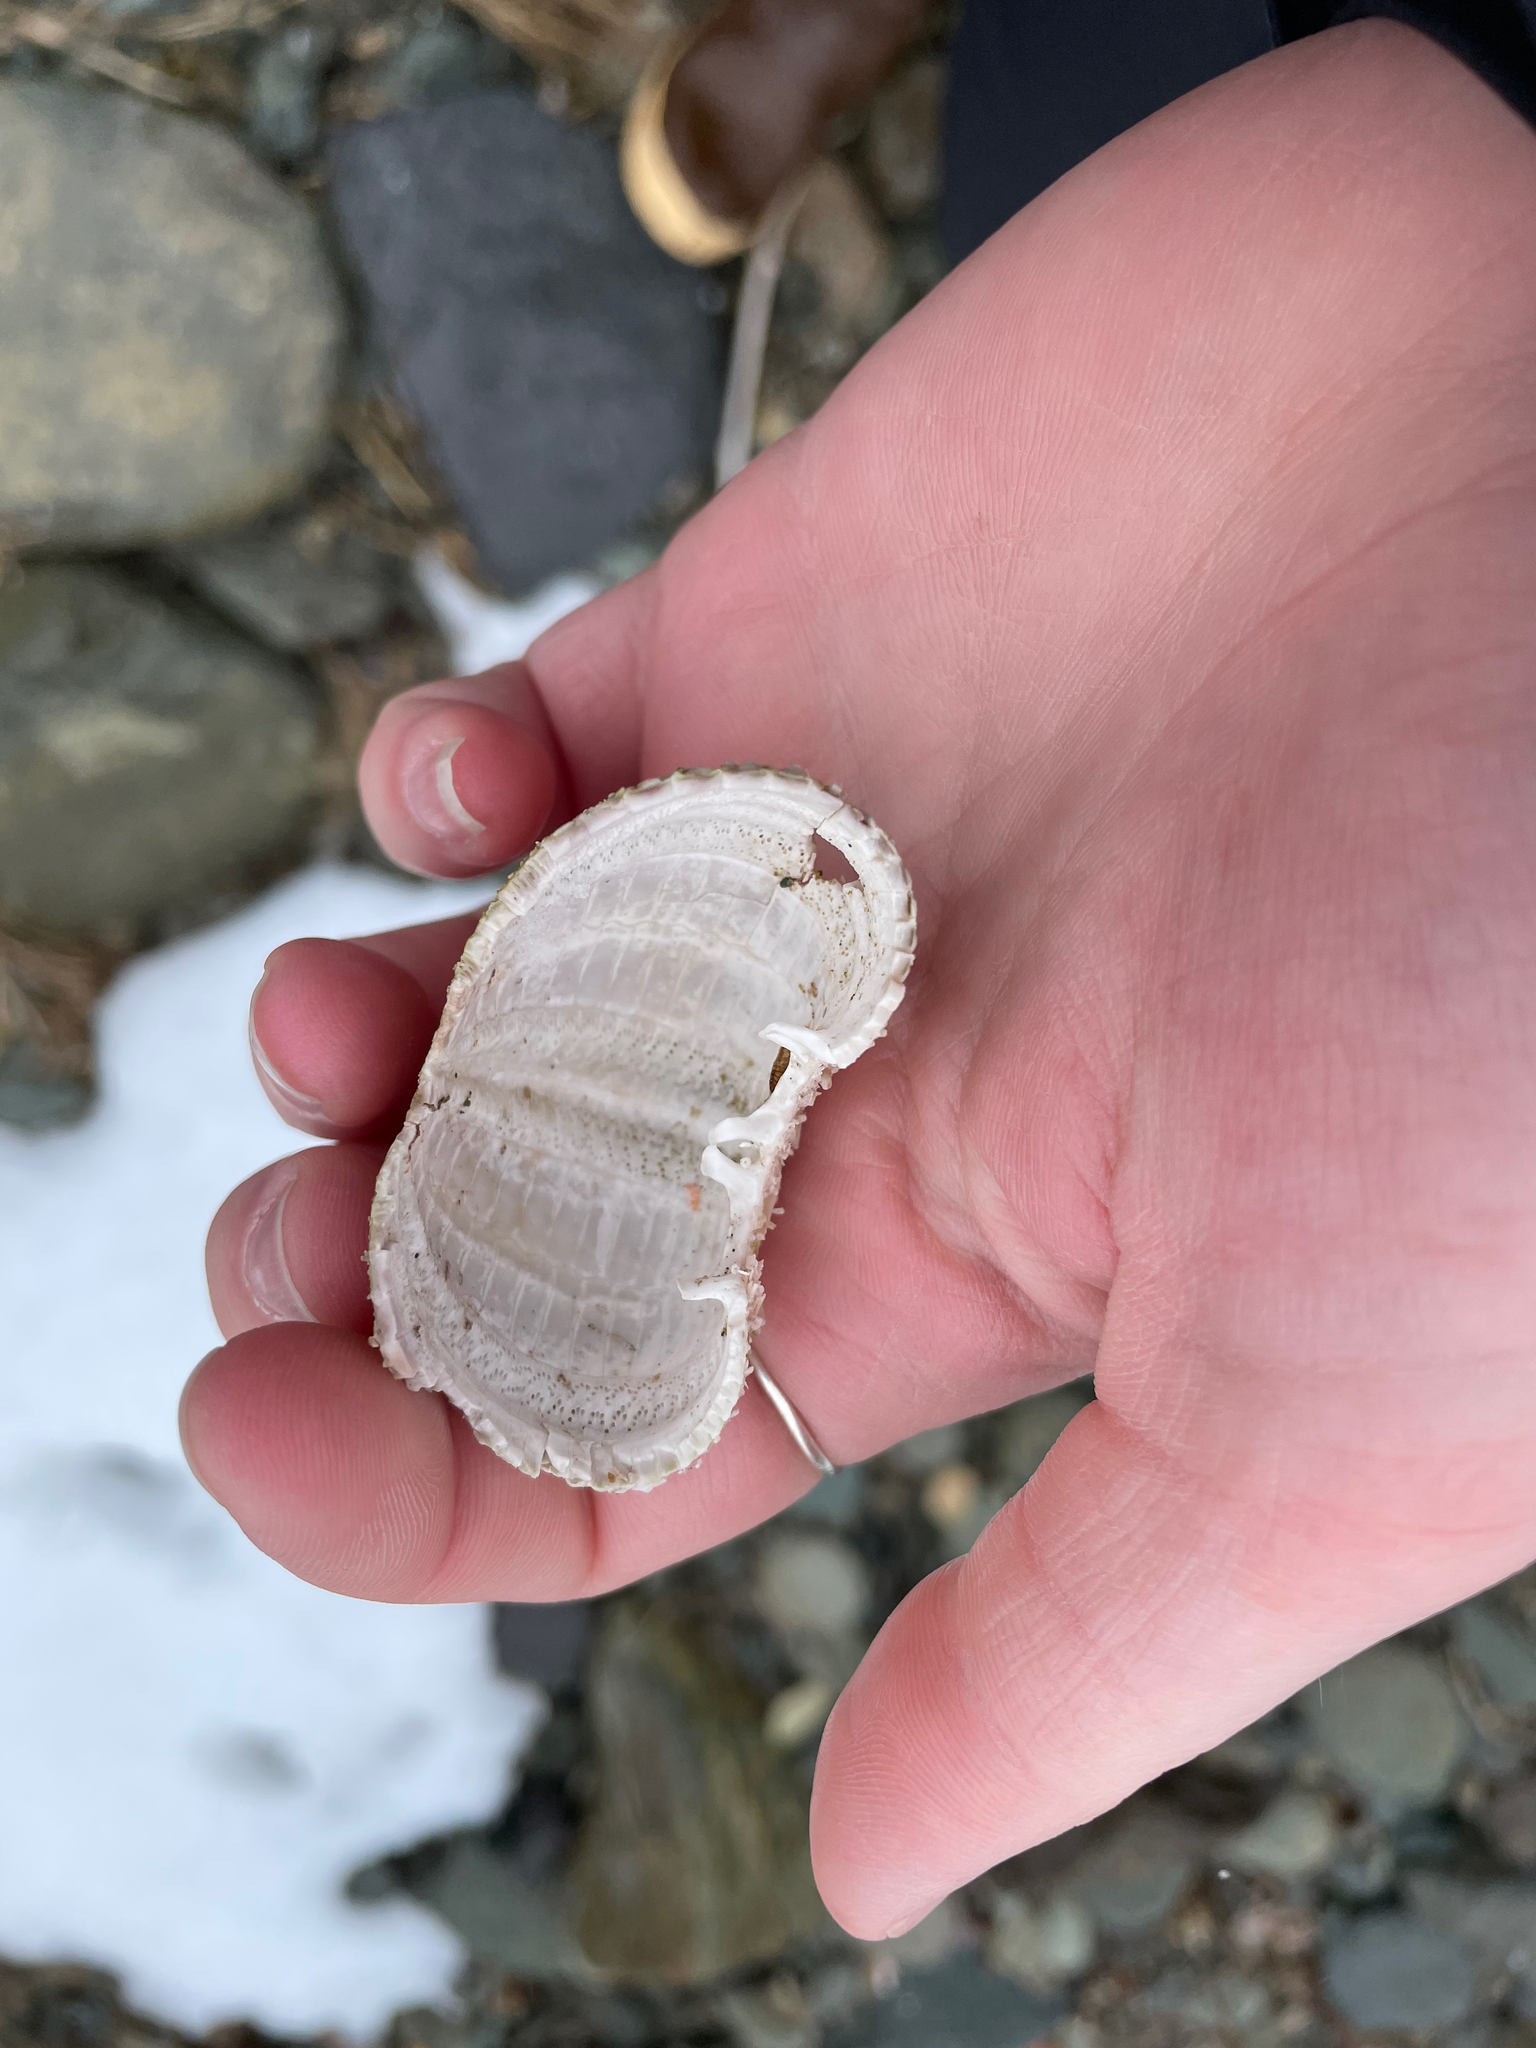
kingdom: Animalia
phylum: Echinodermata
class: Echinoidea
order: Camarodonta
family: Strongylocentrotidae
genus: Strongylocentrotus
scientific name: Strongylocentrotus droebachiensis
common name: Northern sea urchin
